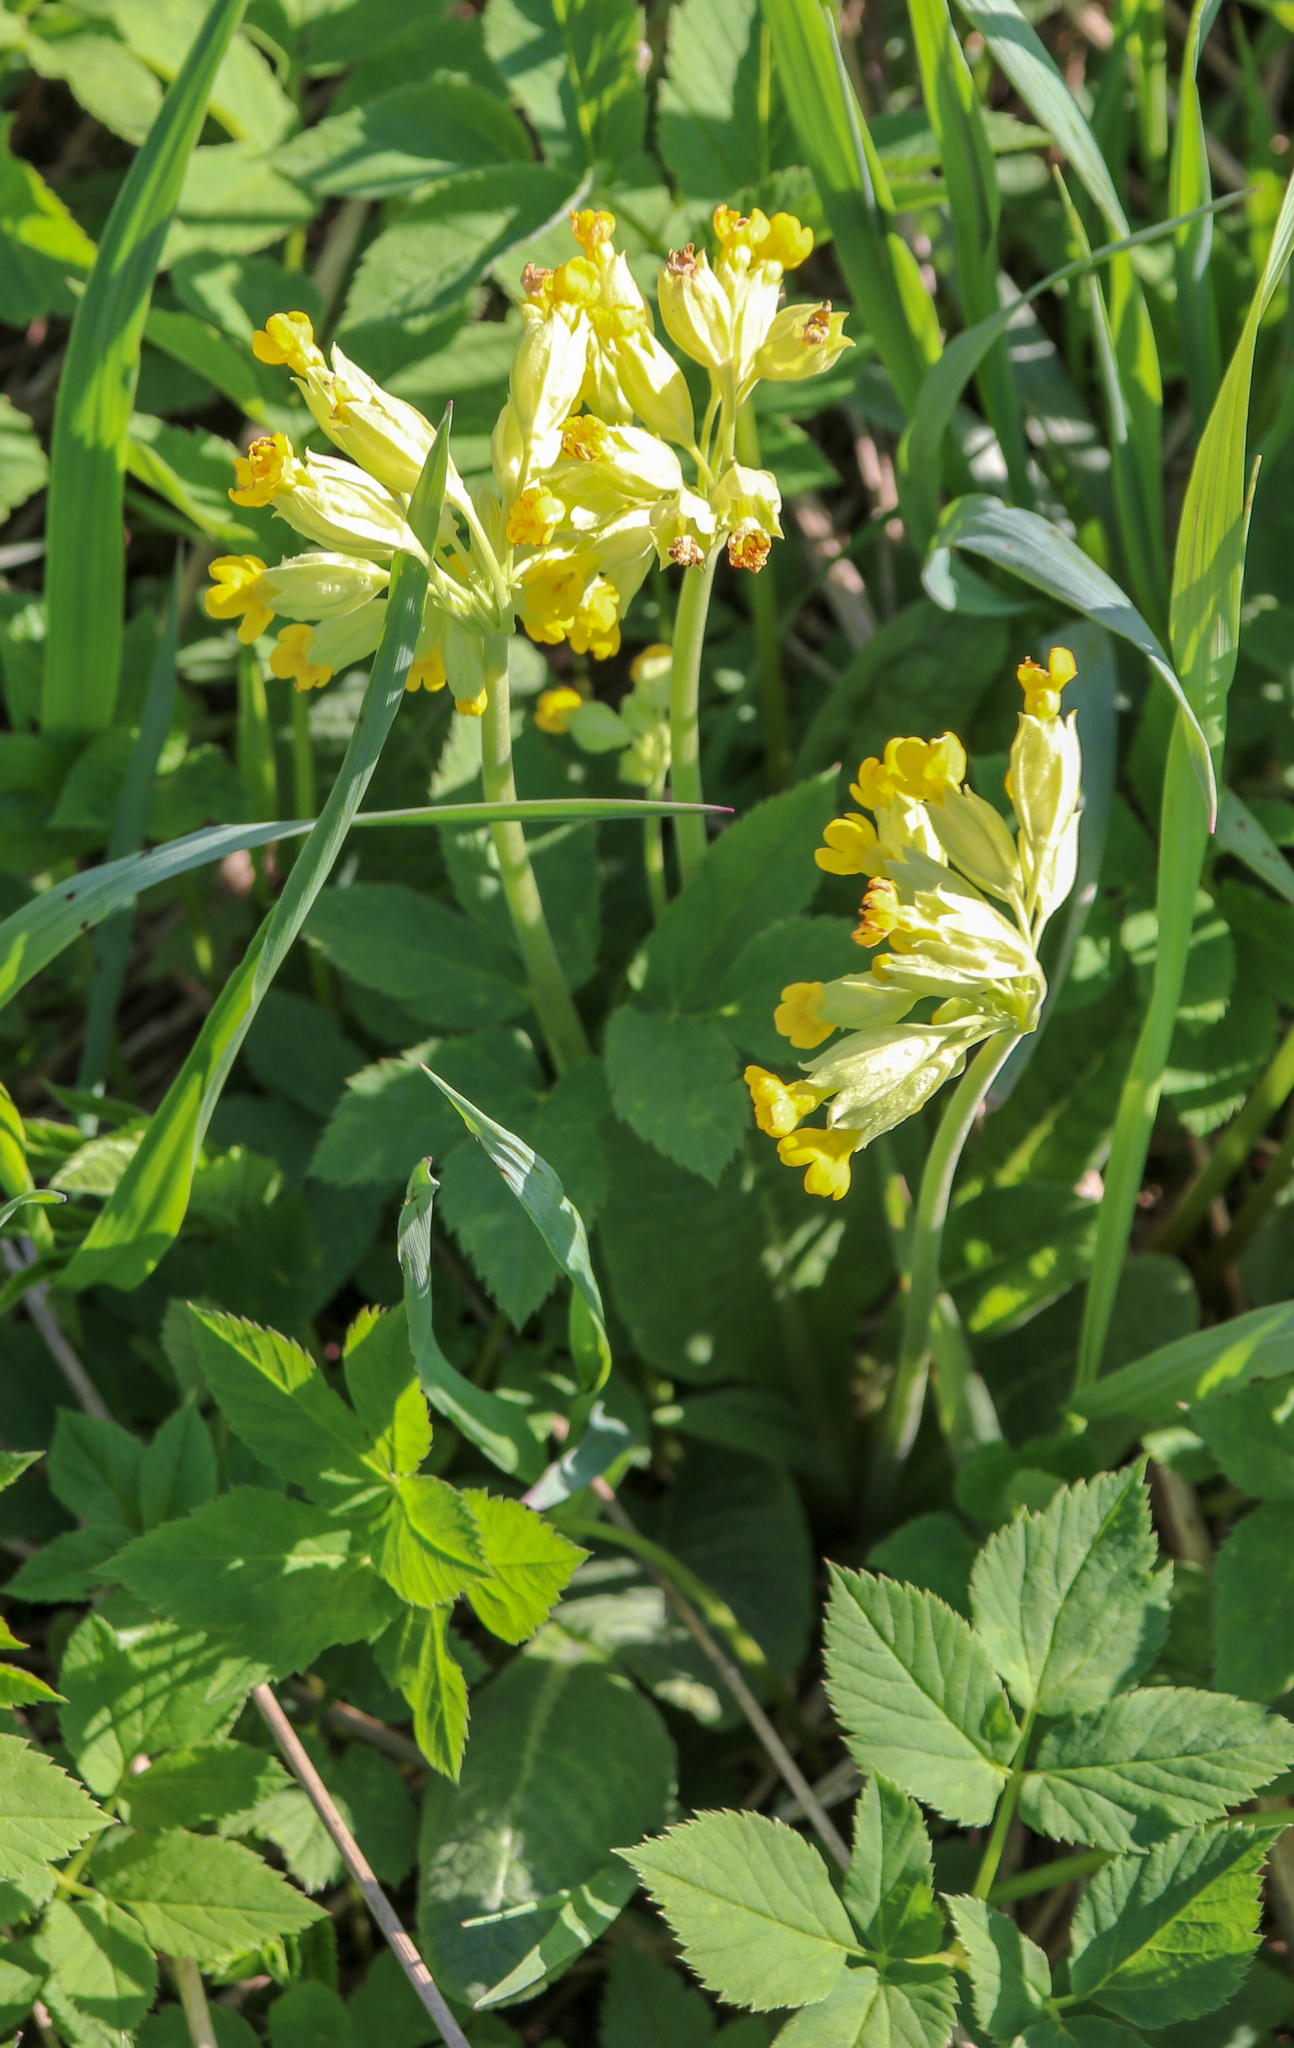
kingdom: Plantae
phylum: Tracheophyta
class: Magnoliopsida
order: Ericales
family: Primulaceae
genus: Primula
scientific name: Primula veris
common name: Cowslip
